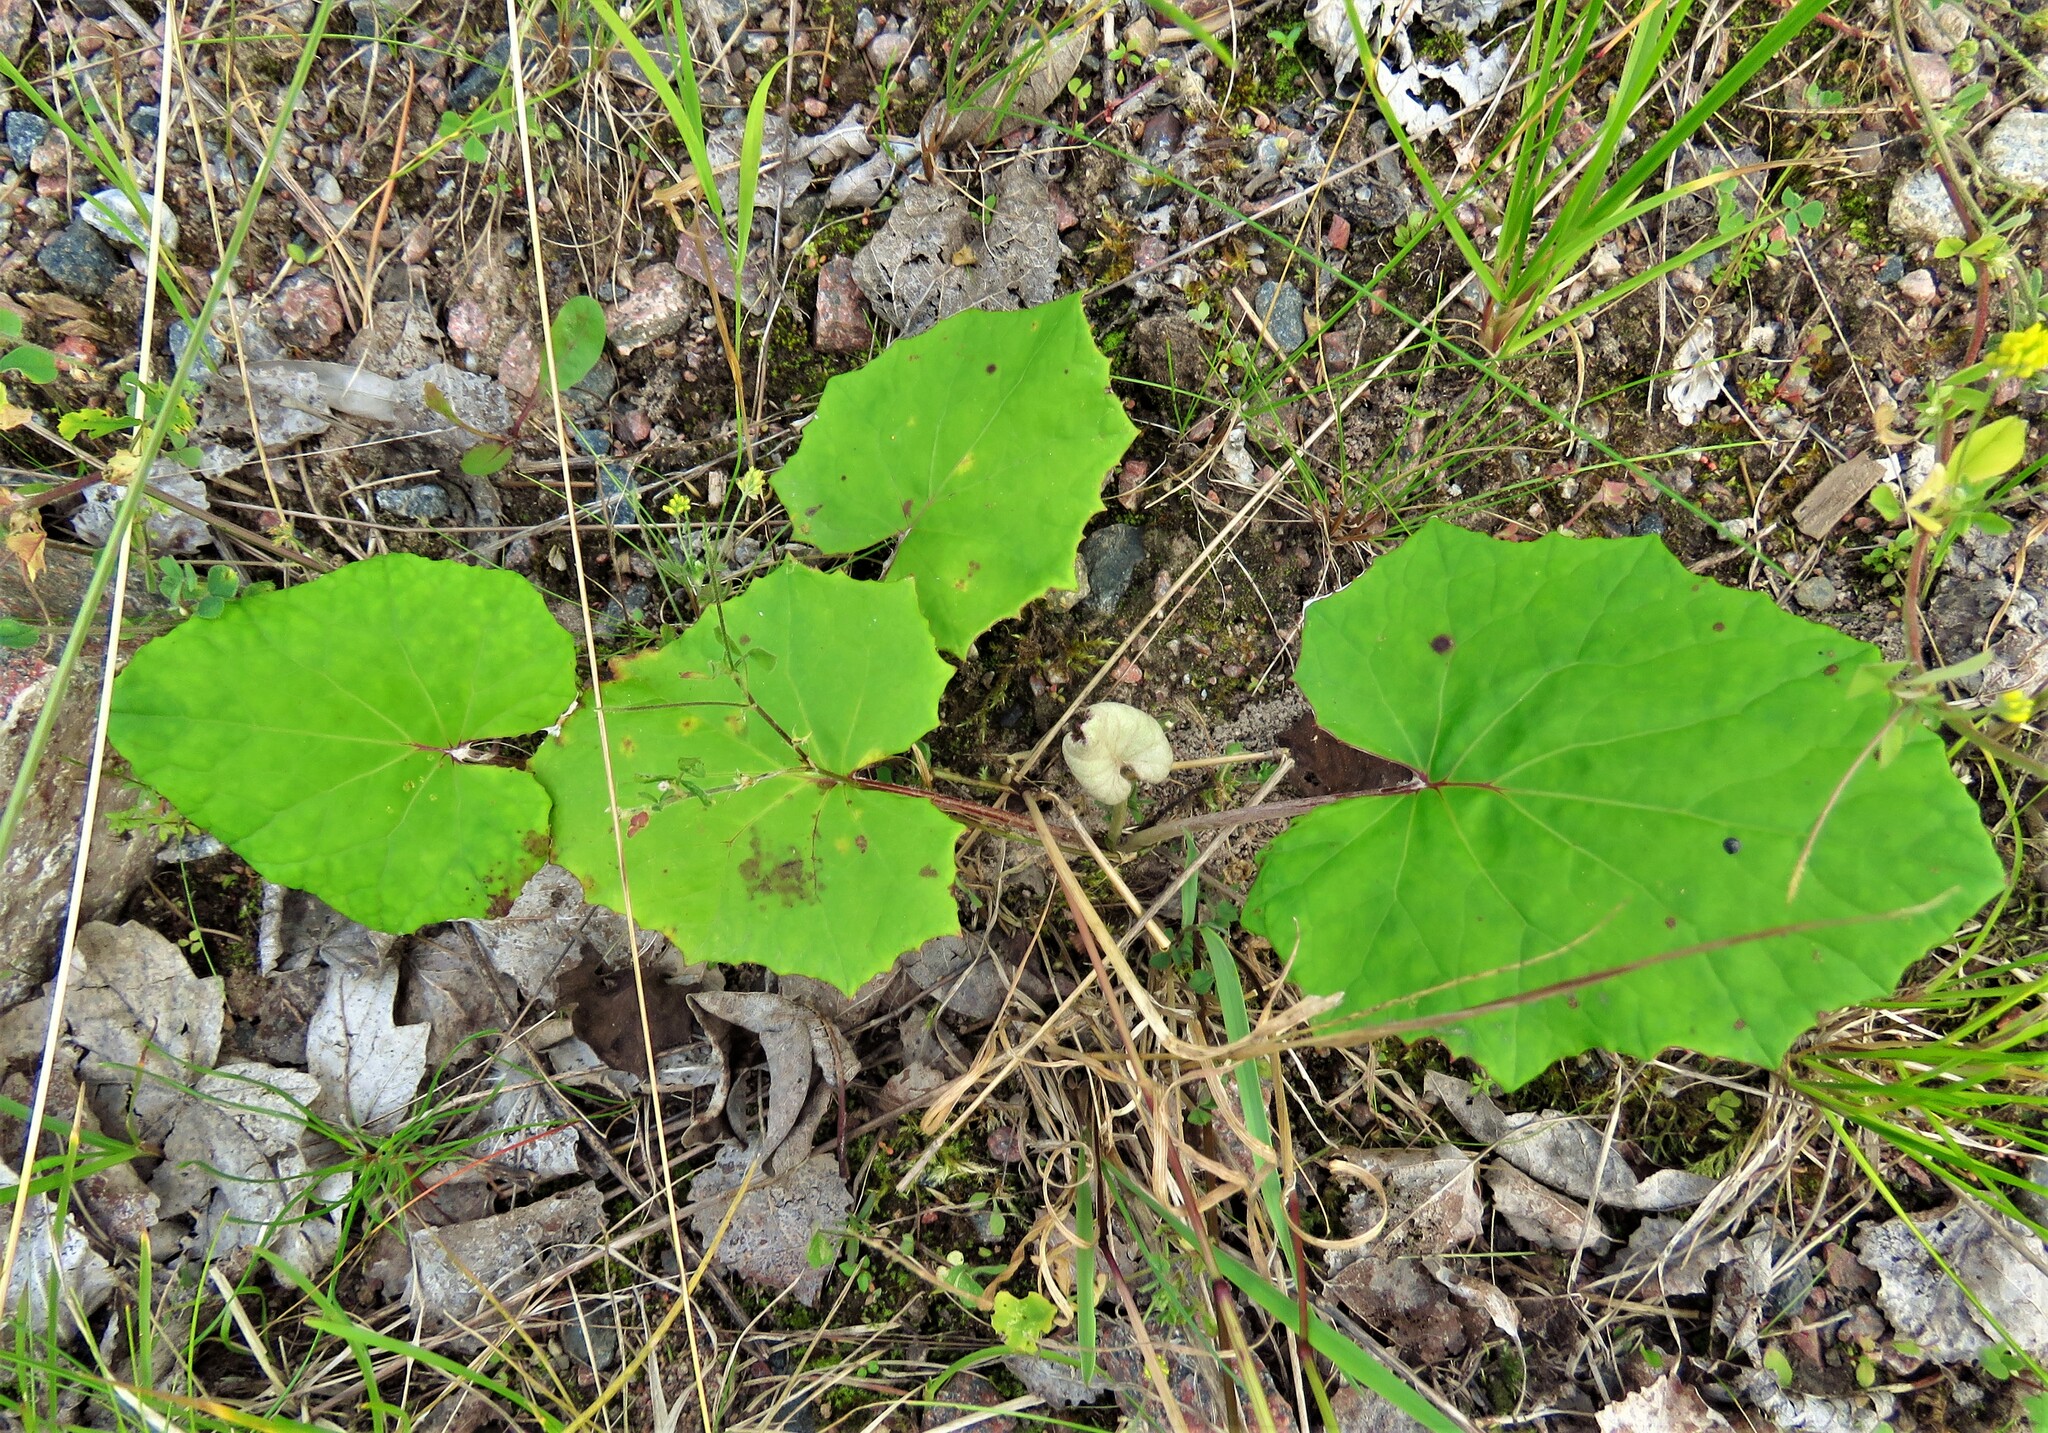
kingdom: Plantae
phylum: Tracheophyta
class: Magnoliopsida
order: Asterales
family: Asteraceae
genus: Tussilago
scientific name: Tussilago farfara
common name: Coltsfoot
